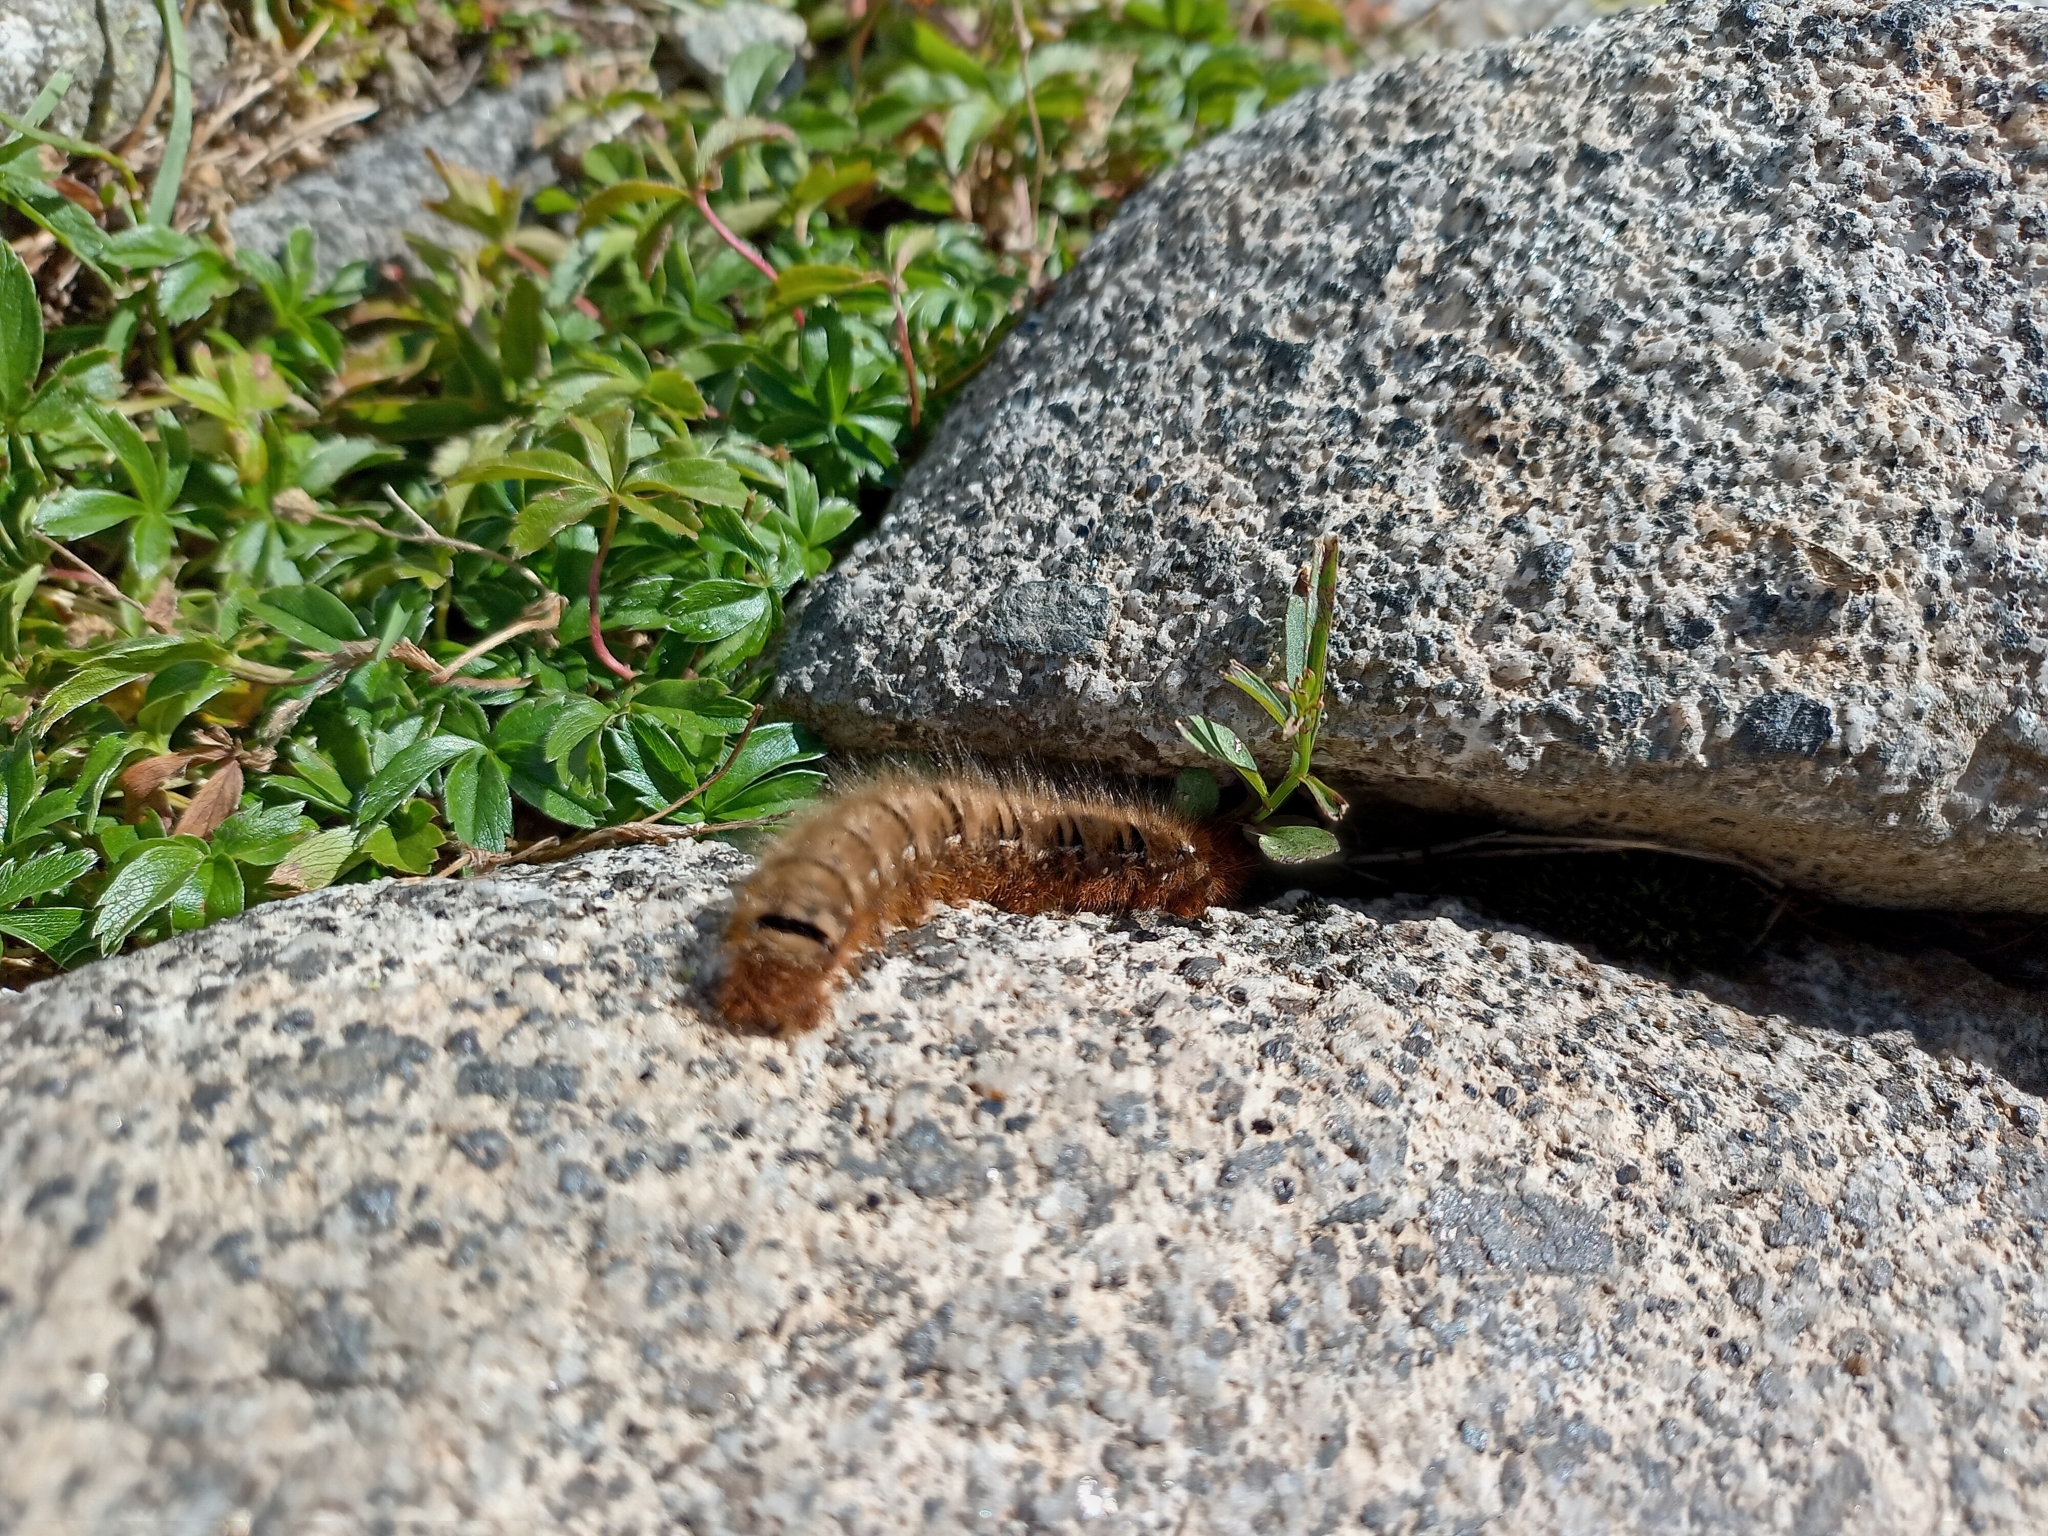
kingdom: Animalia
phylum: Arthropoda
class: Insecta
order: Lepidoptera
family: Lasiocampidae
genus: Lasiocampa
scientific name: Lasiocampa quercus
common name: Oak eggar
